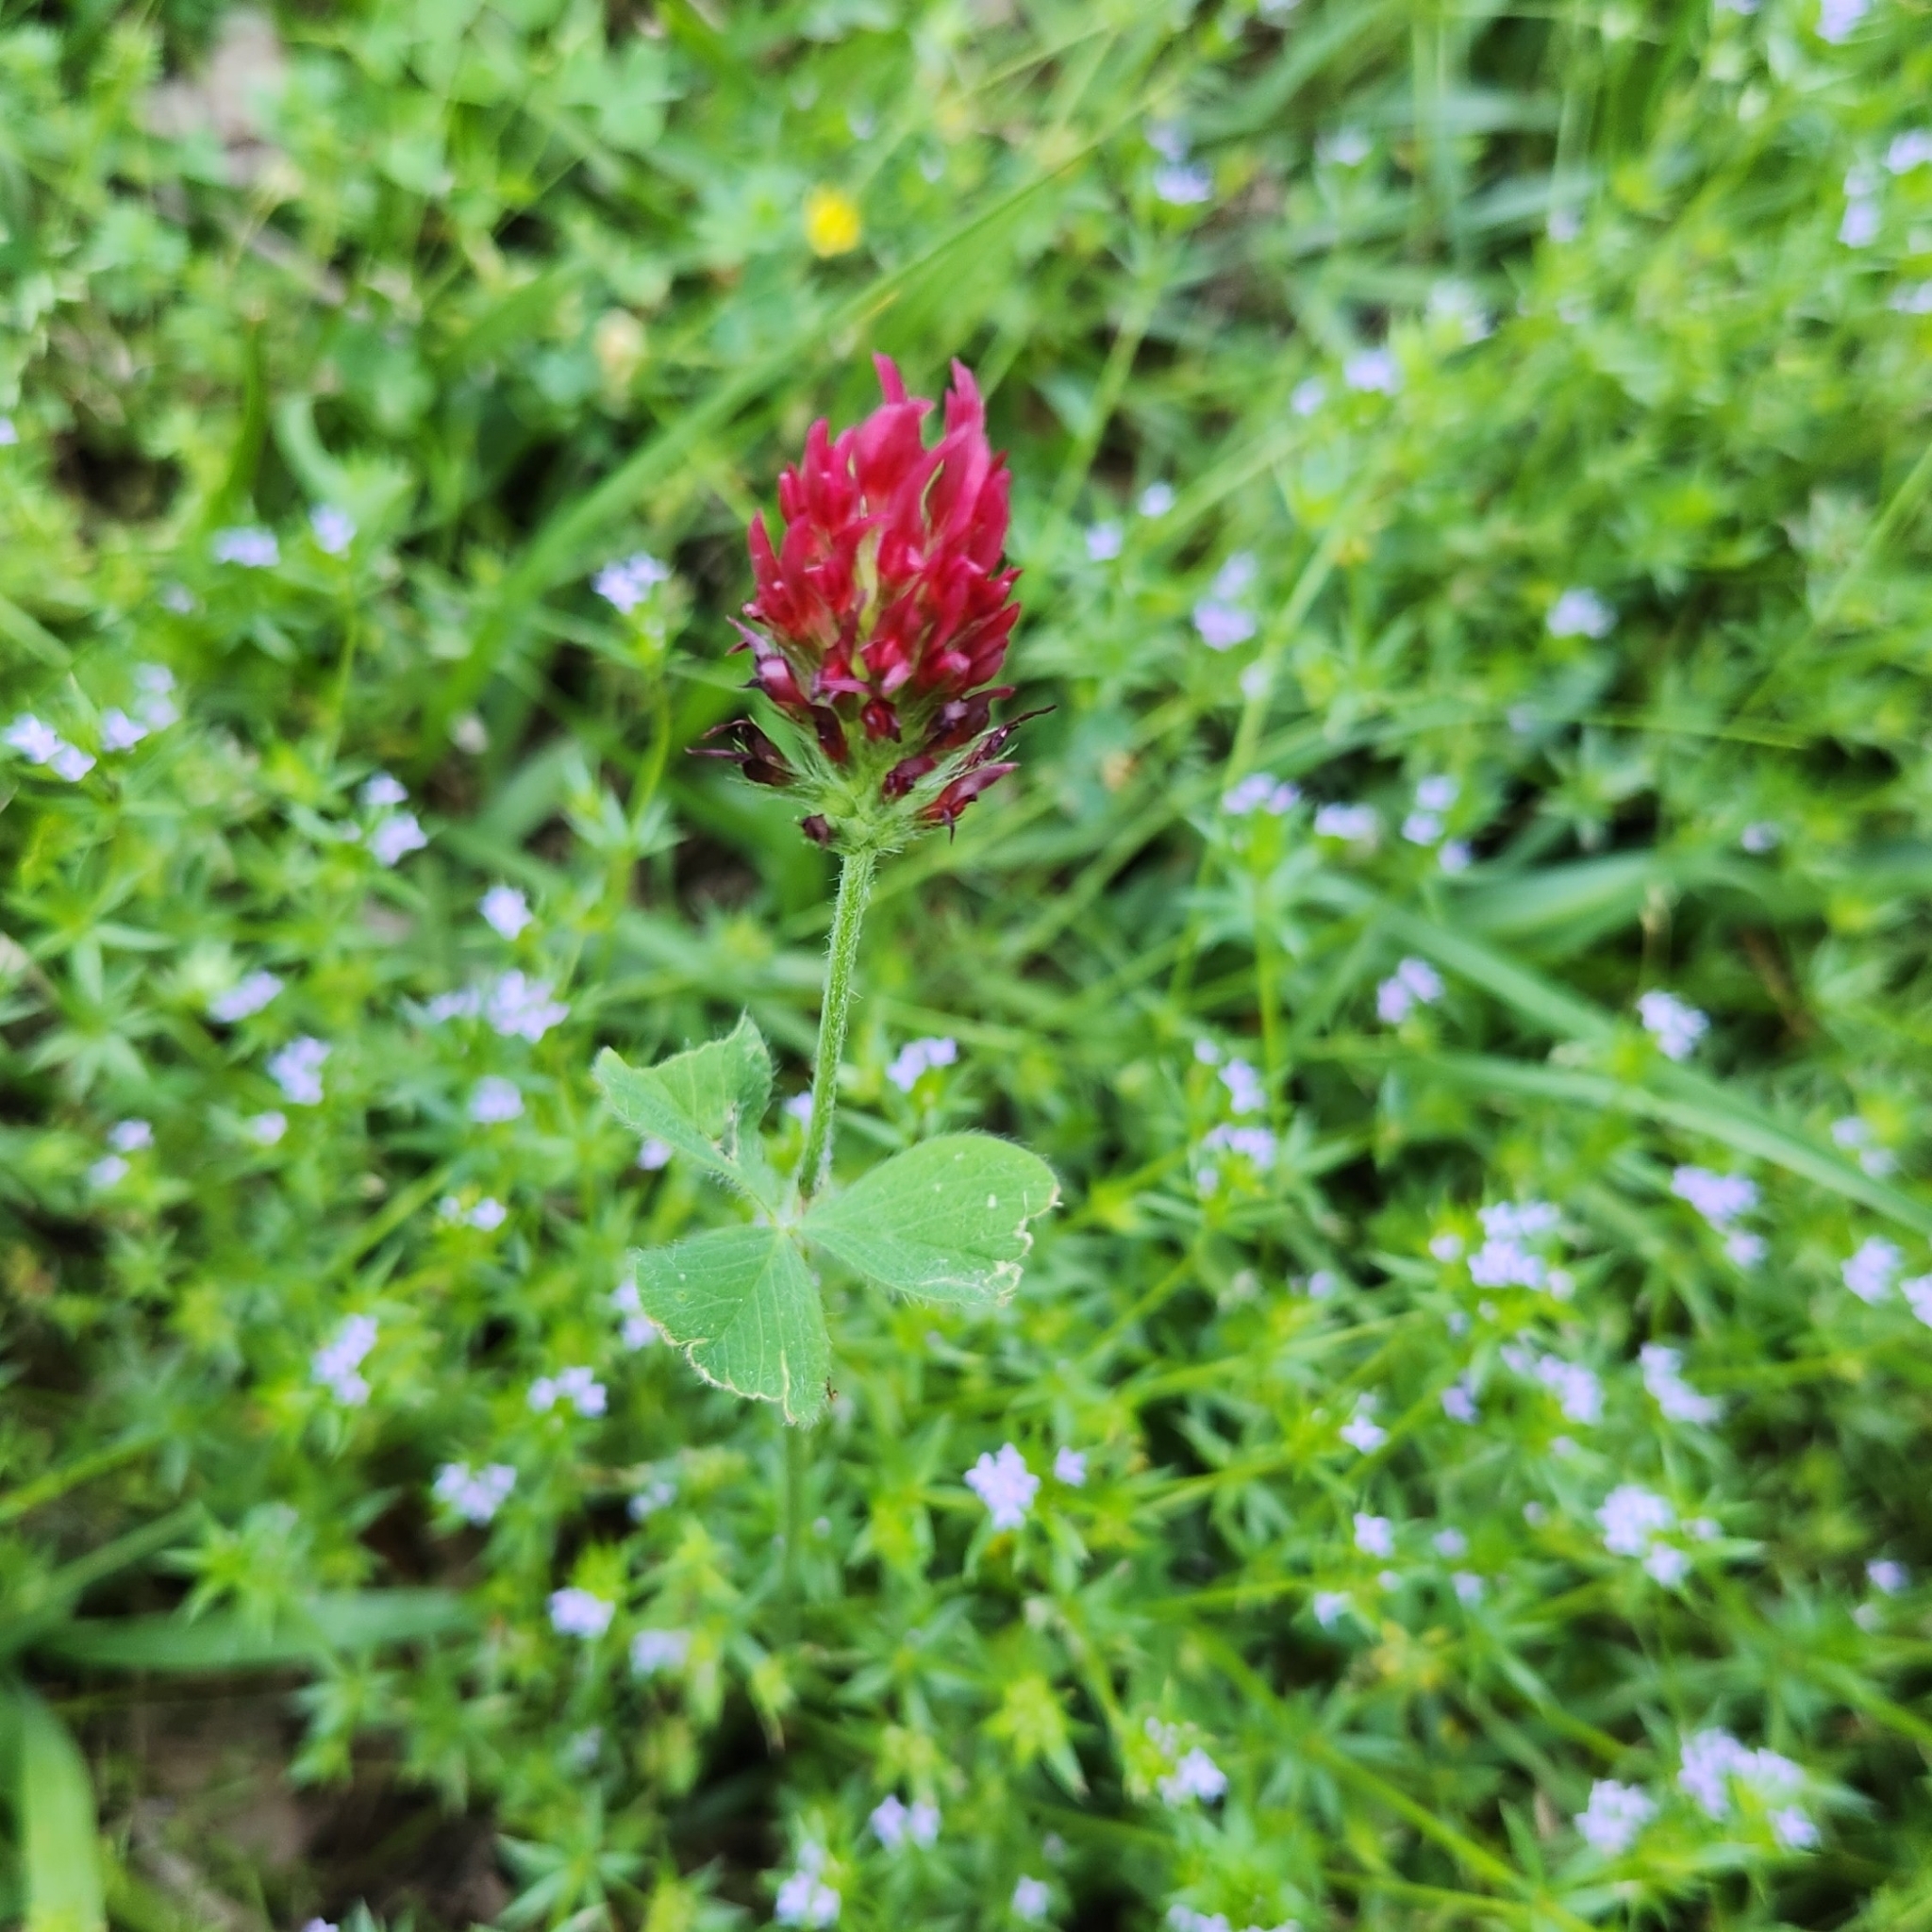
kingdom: Plantae
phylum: Tracheophyta
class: Magnoliopsida
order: Fabales
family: Fabaceae
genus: Trifolium
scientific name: Trifolium incarnatum
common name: Crimson clover
